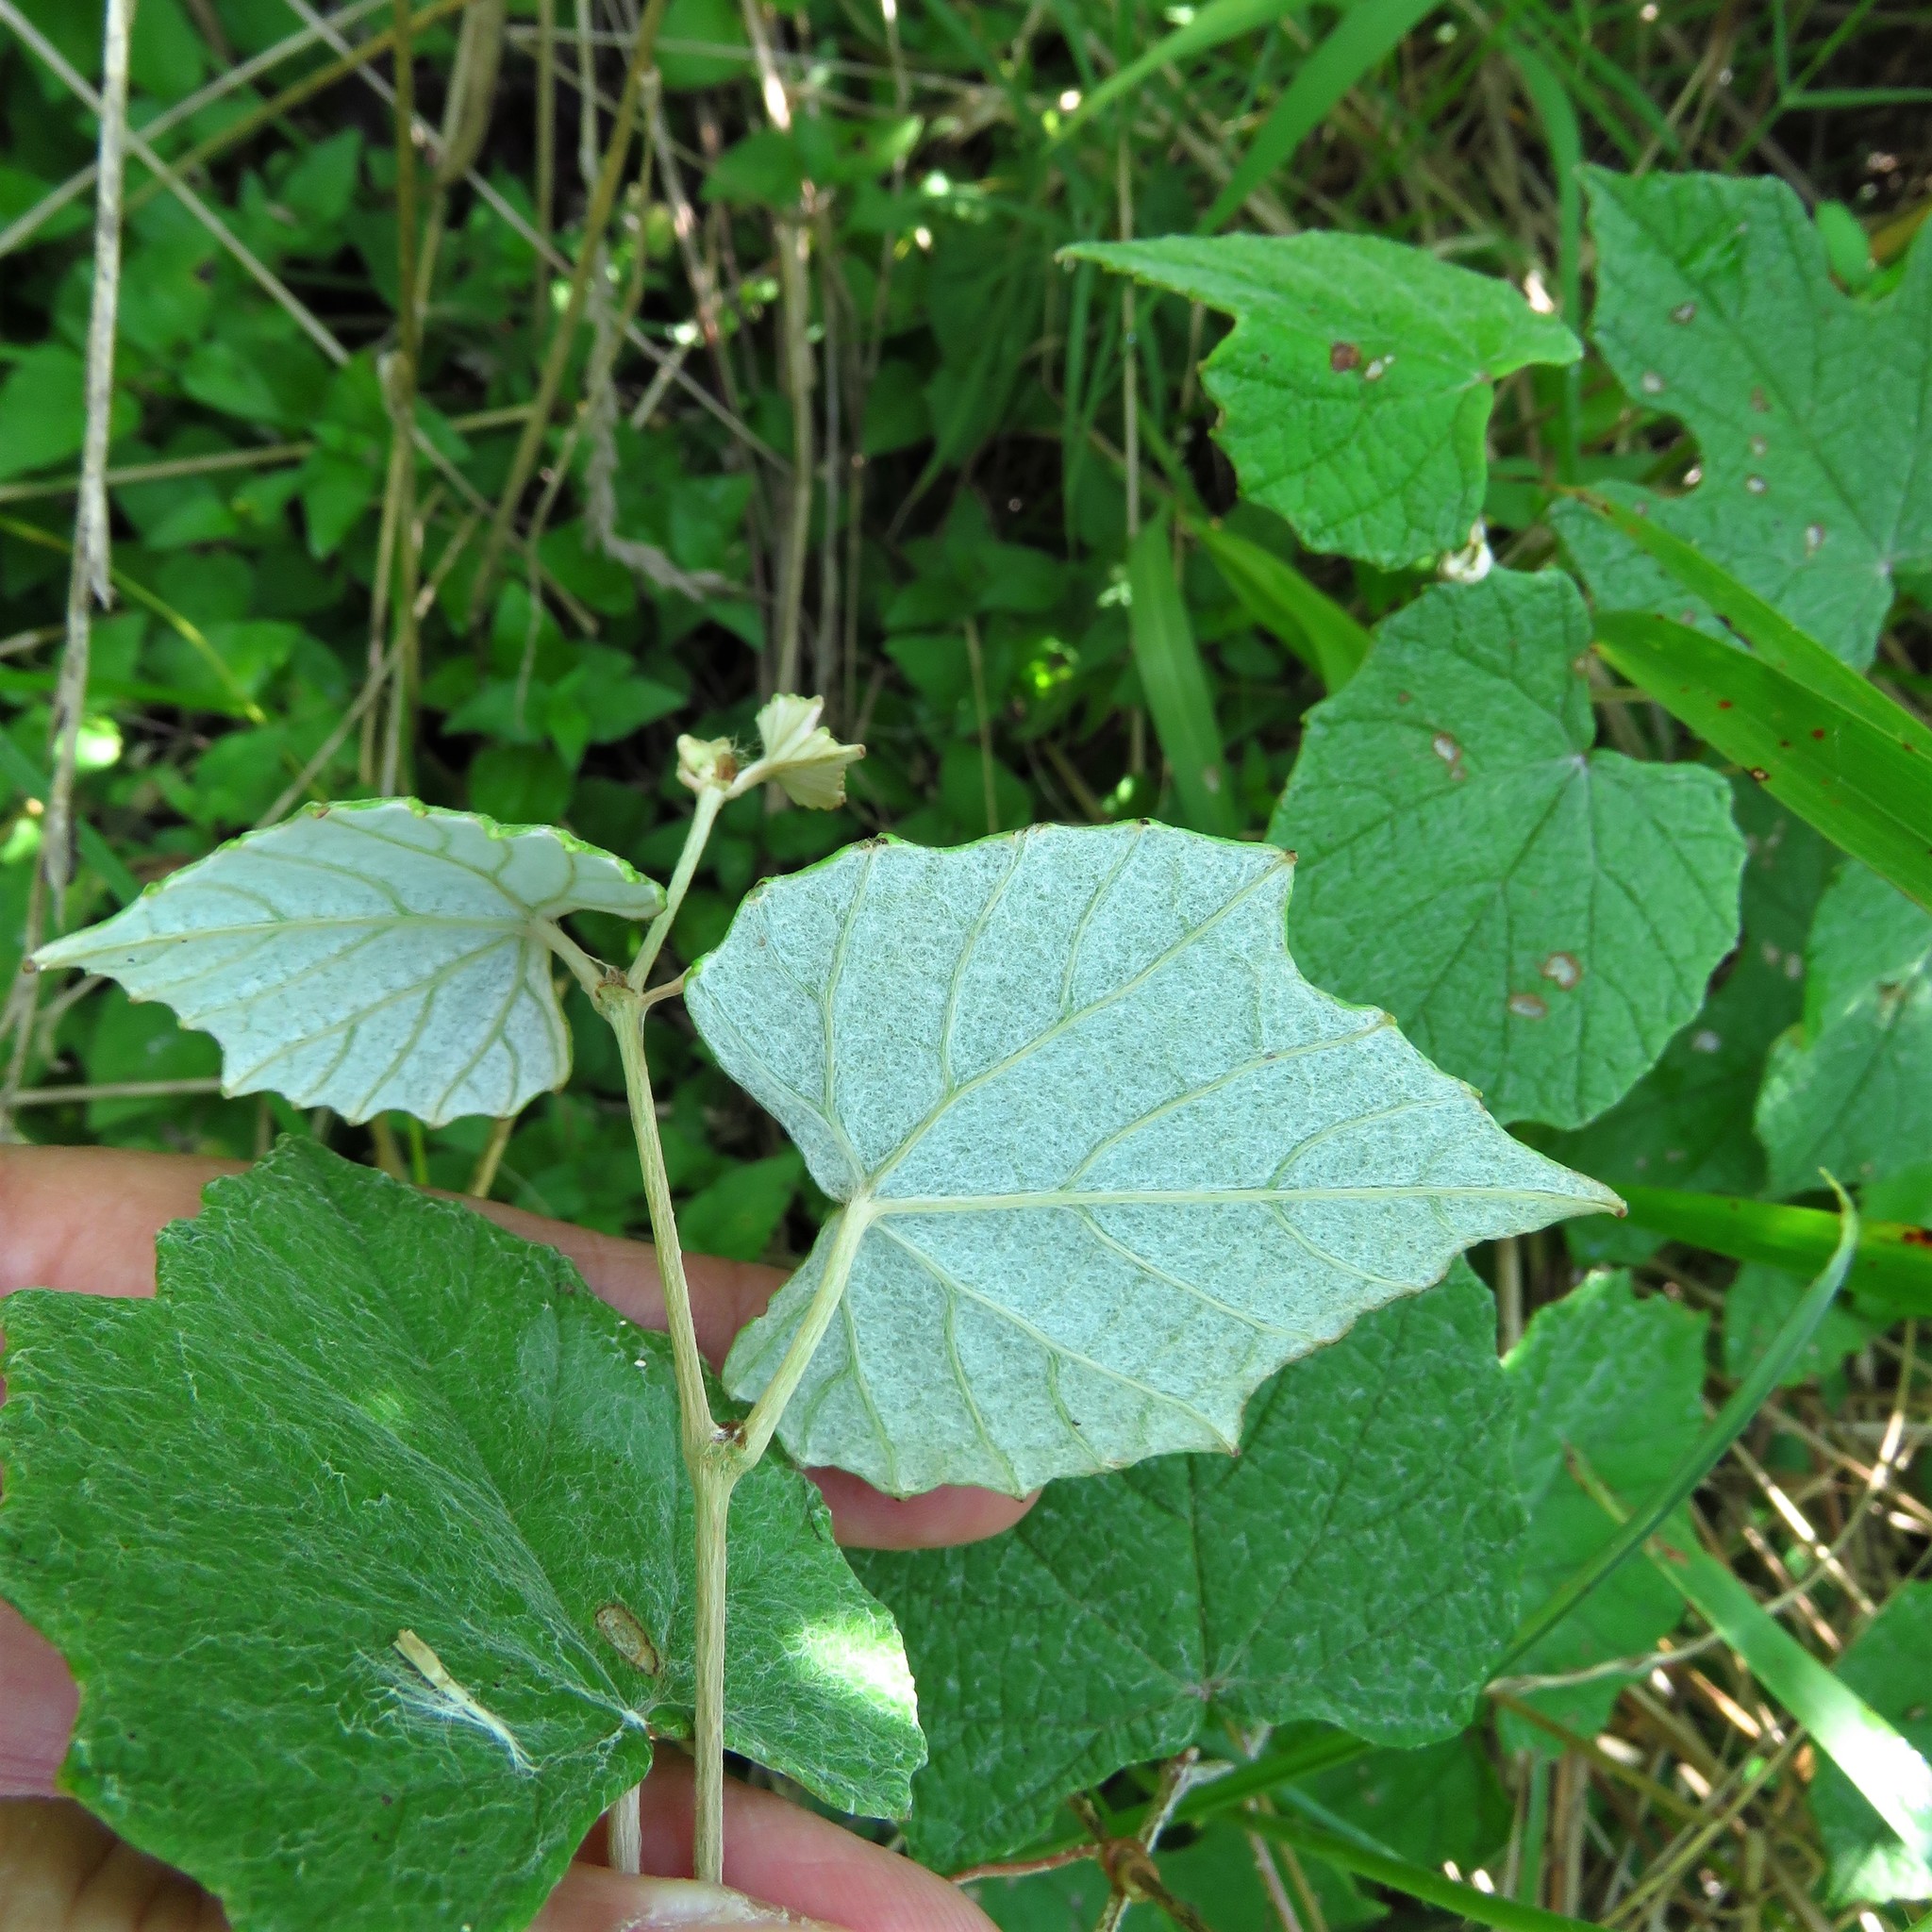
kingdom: Plantae
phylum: Tracheophyta
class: Magnoliopsida
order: Vitales
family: Vitaceae
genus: Vitis
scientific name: Vitis mustangensis
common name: Mustang grape
